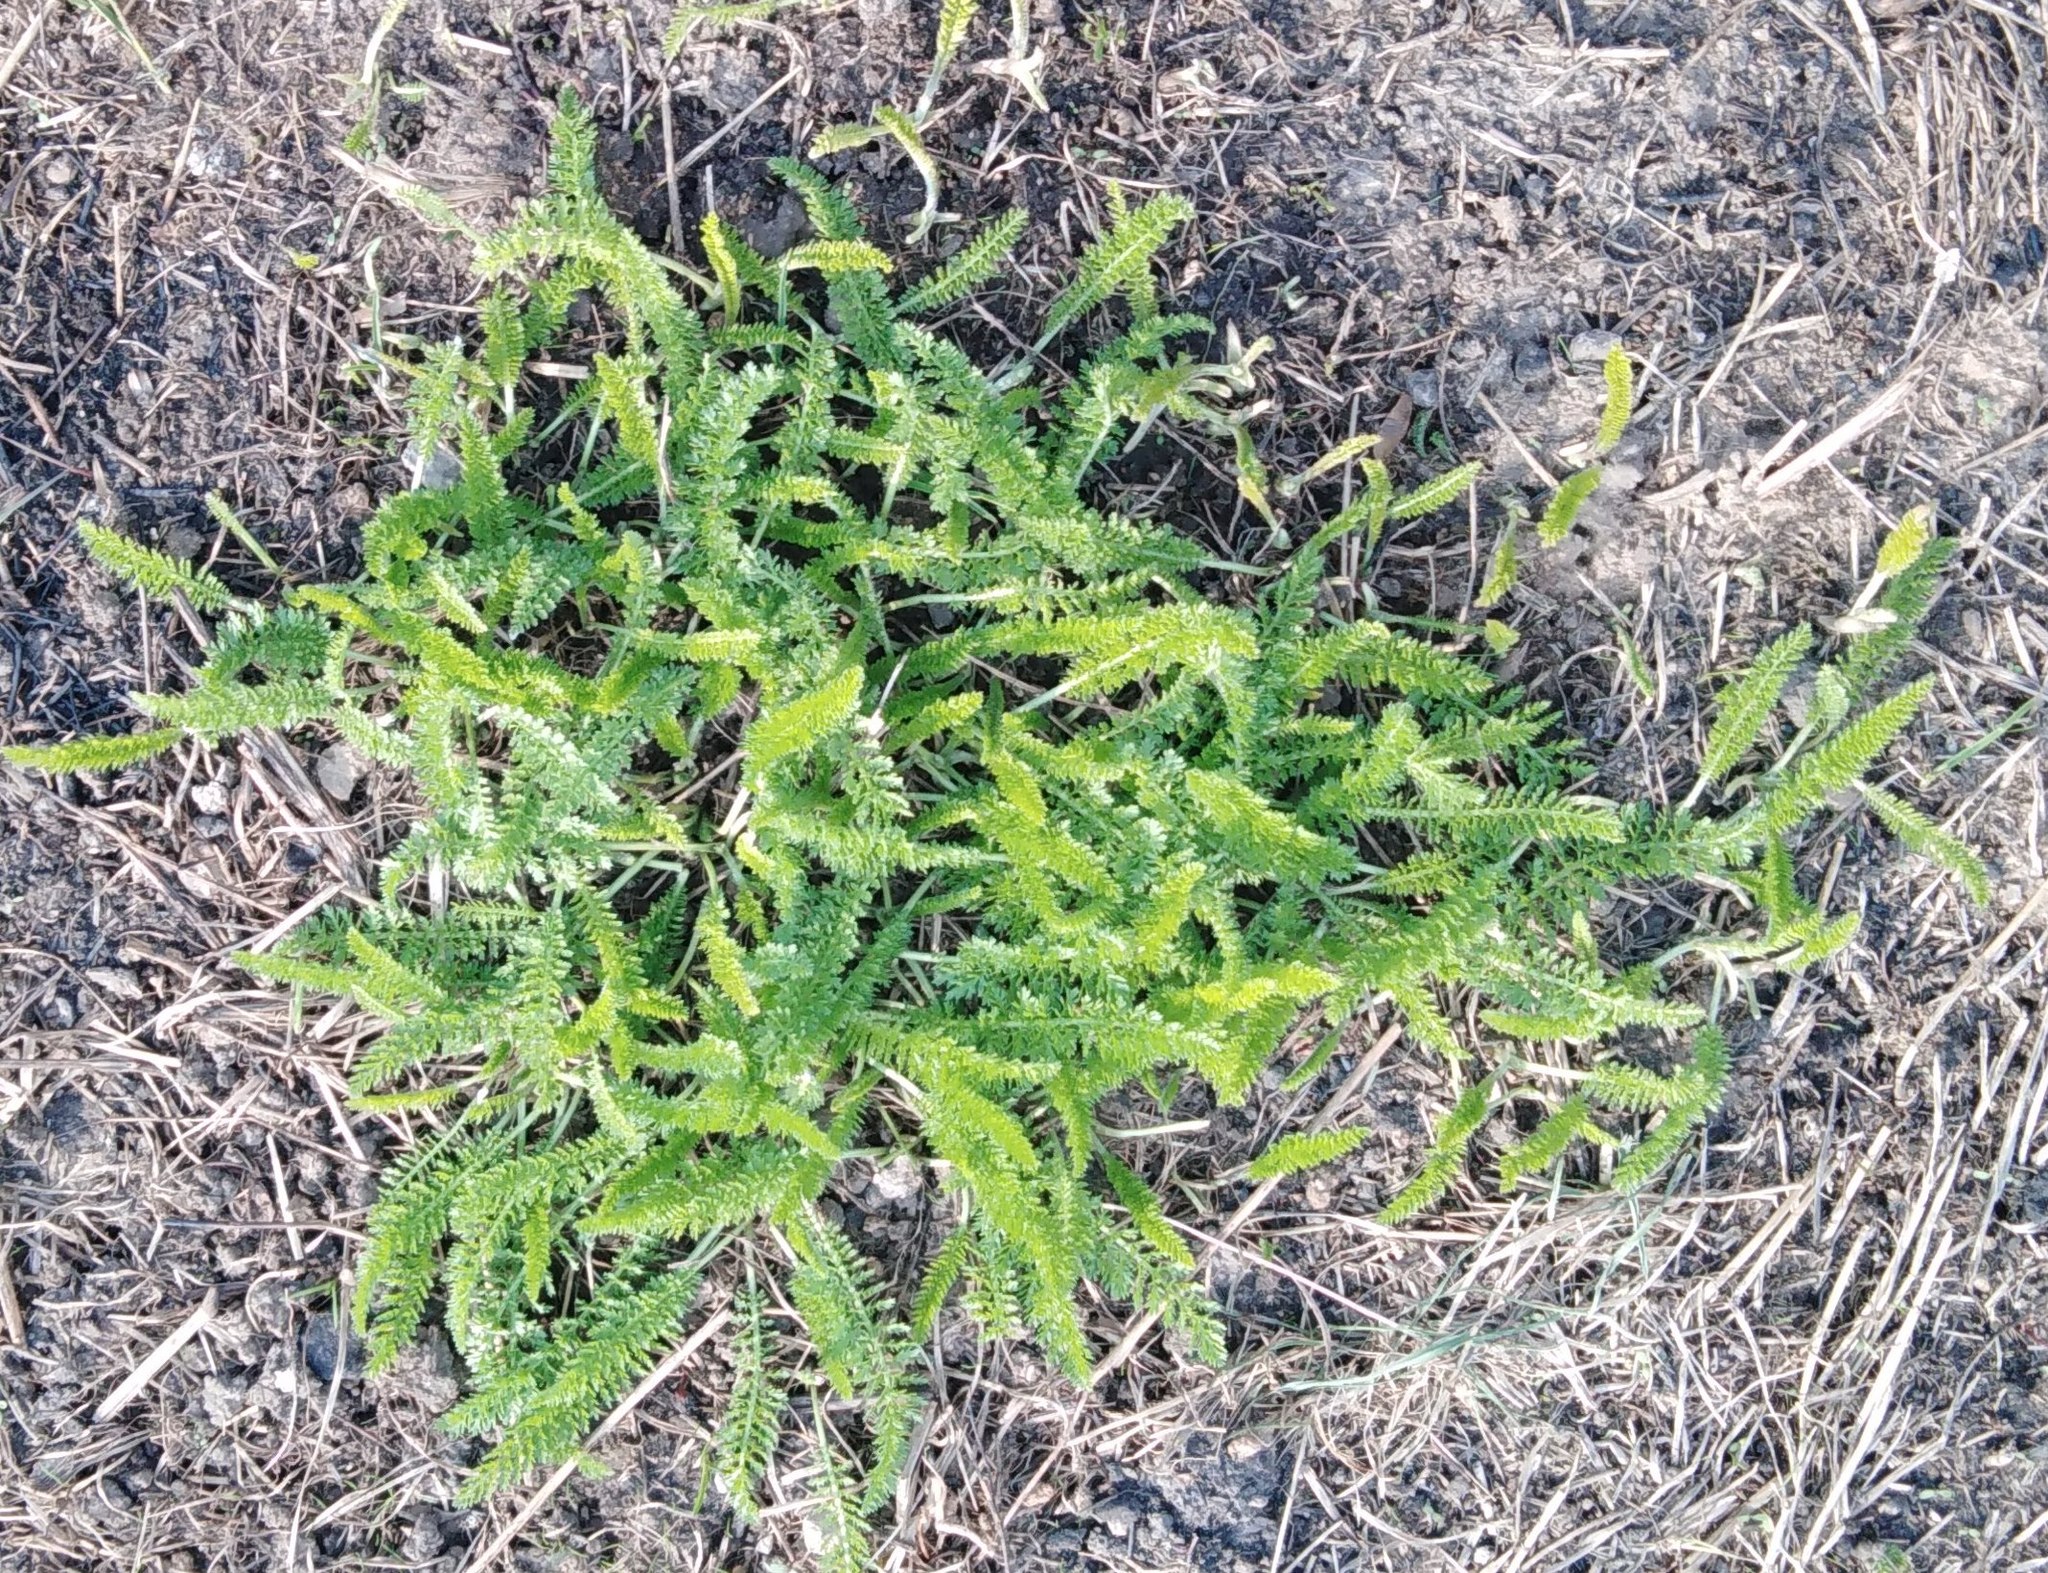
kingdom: Plantae
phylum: Tracheophyta
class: Magnoliopsida
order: Asterales
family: Asteraceae
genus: Achillea
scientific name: Achillea millefolium
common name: Yarrow
